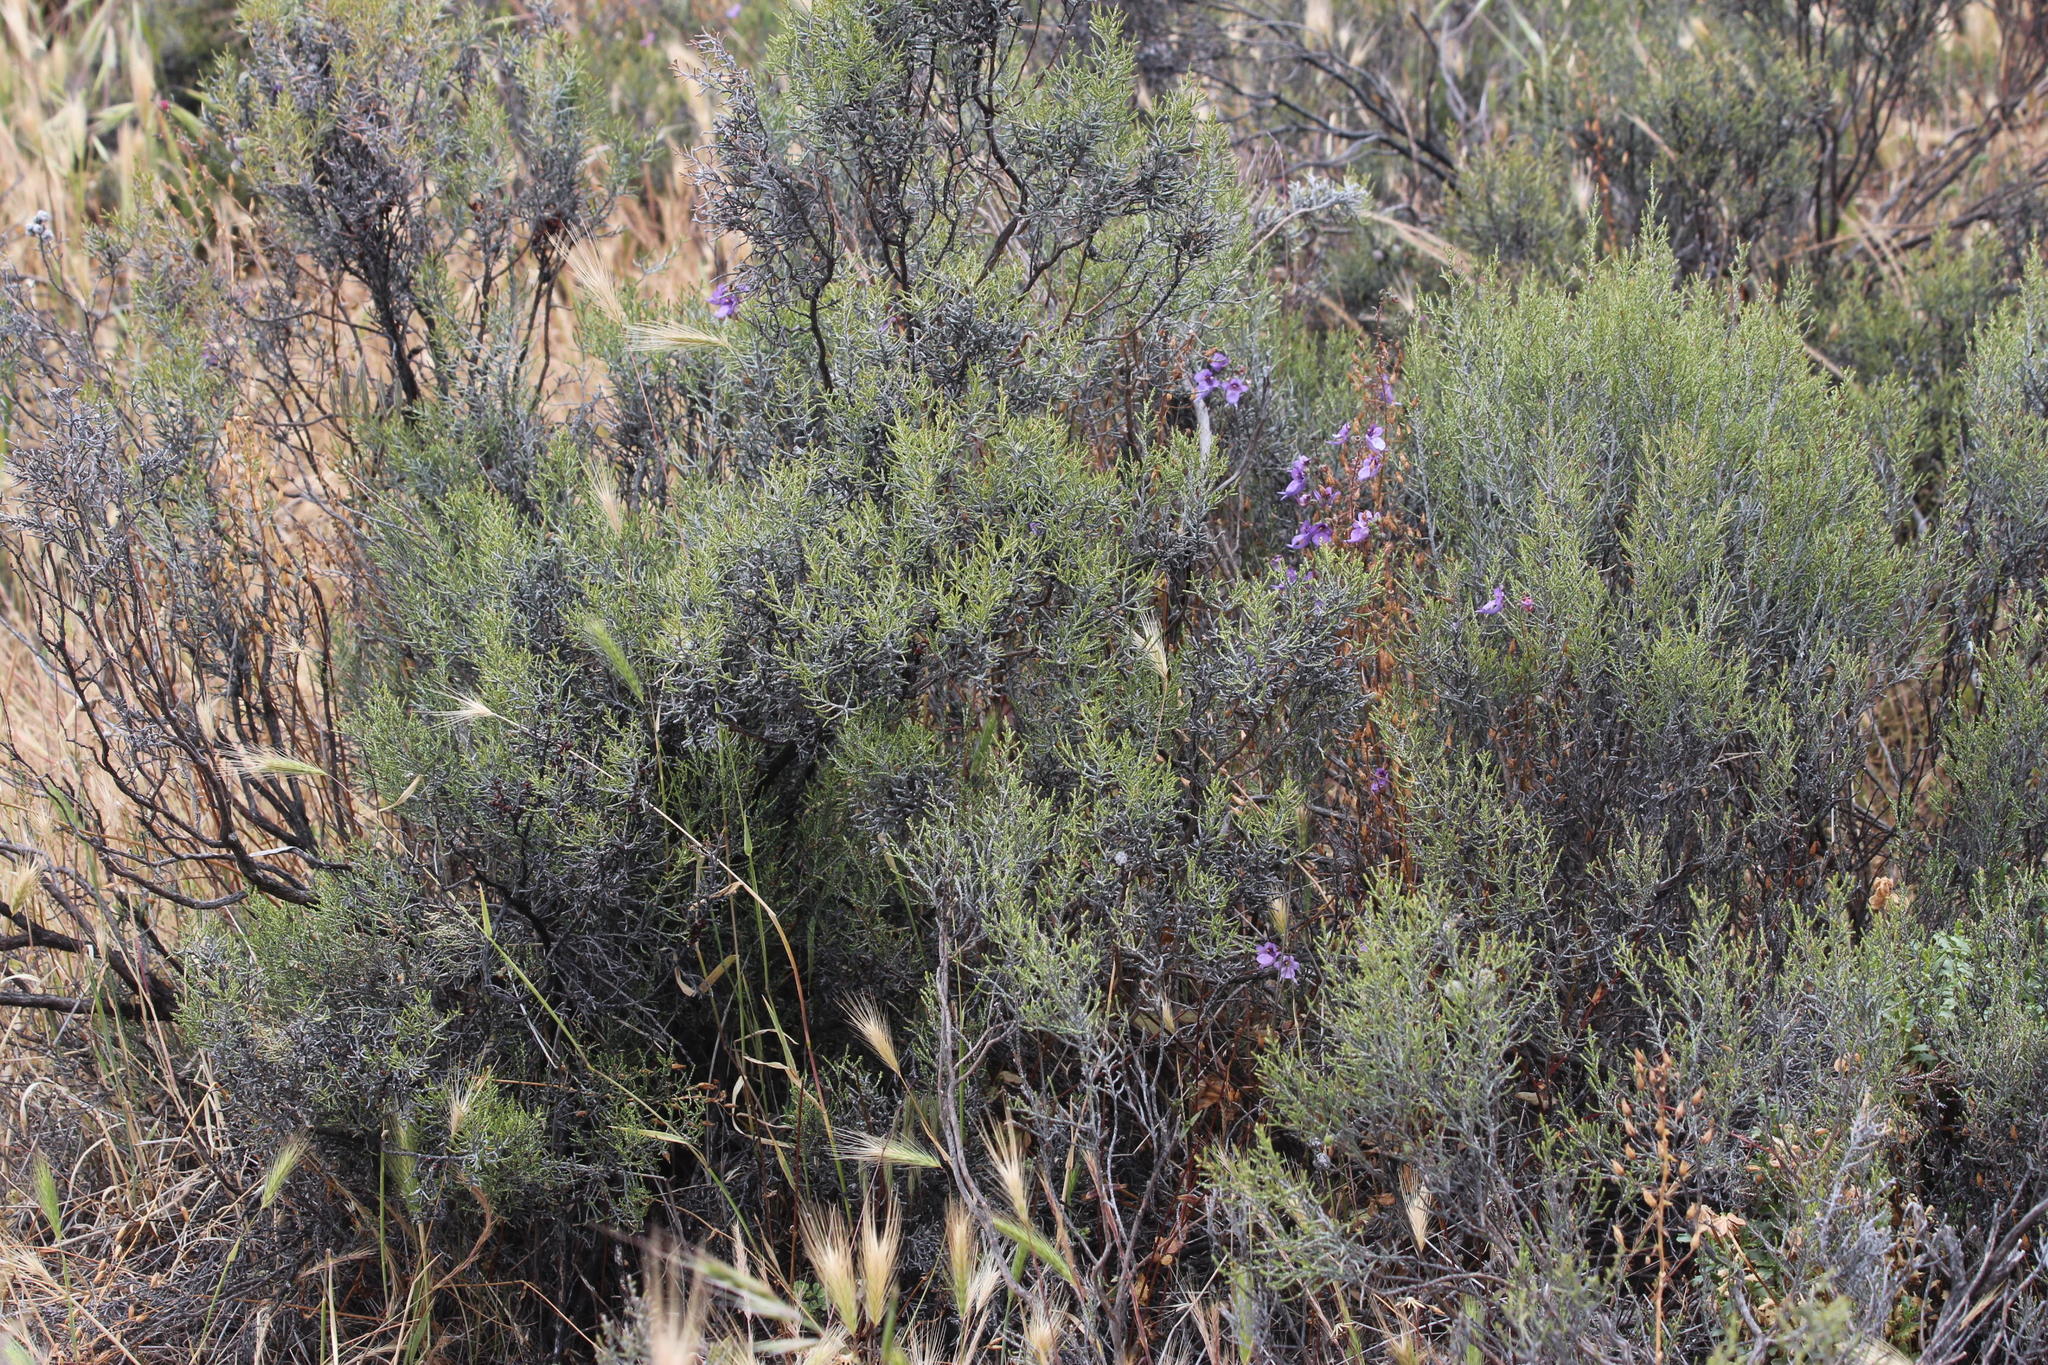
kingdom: Plantae
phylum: Tracheophyta
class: Magnoliopsida
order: Asterales
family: Asteraceae
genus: Dicerothamnus
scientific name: Dicerothamnus rhinocerotis
